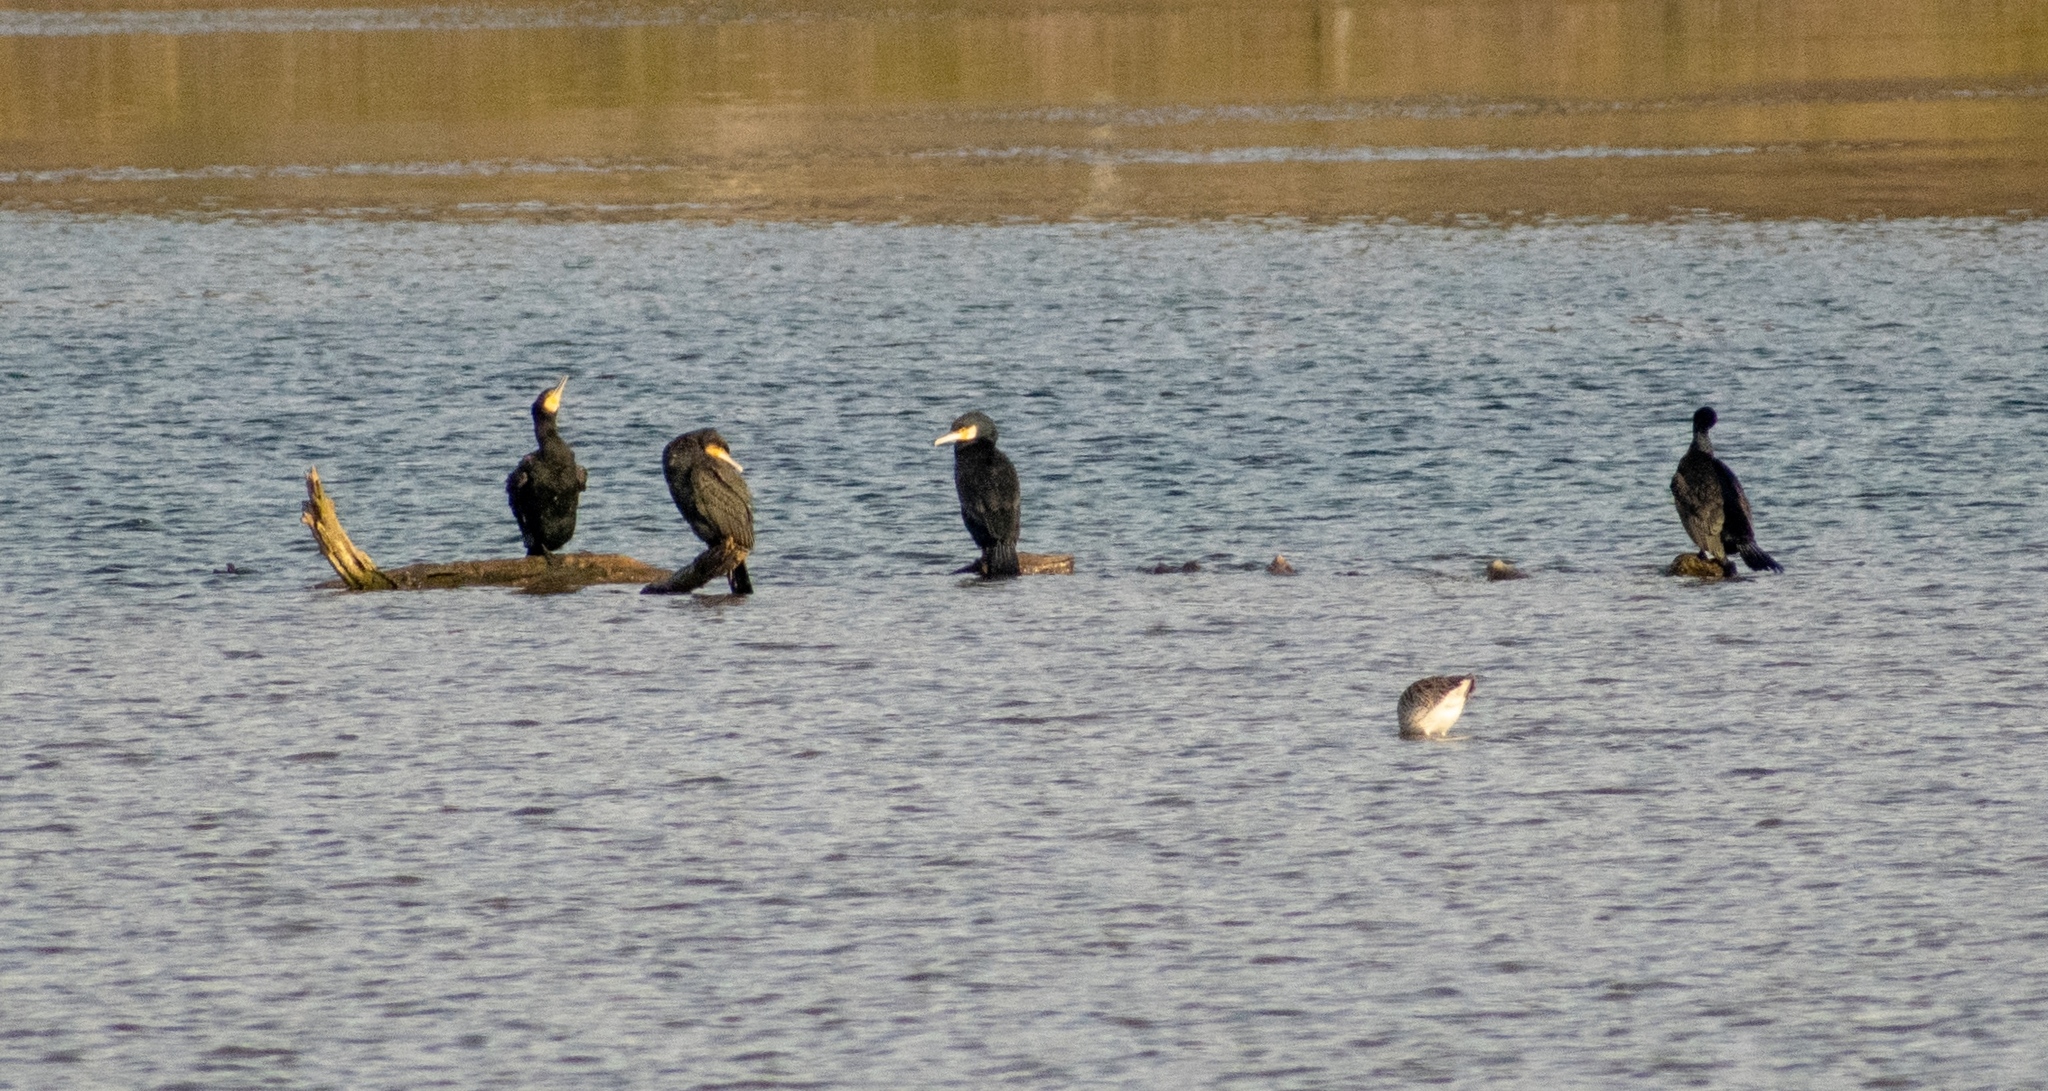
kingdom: Animalia
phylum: Chordata
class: Aves
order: Suliformes
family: Phalacrocoracidae
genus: Phalacrocorax
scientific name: Phalacrocorax carbo
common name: Great cormorant
